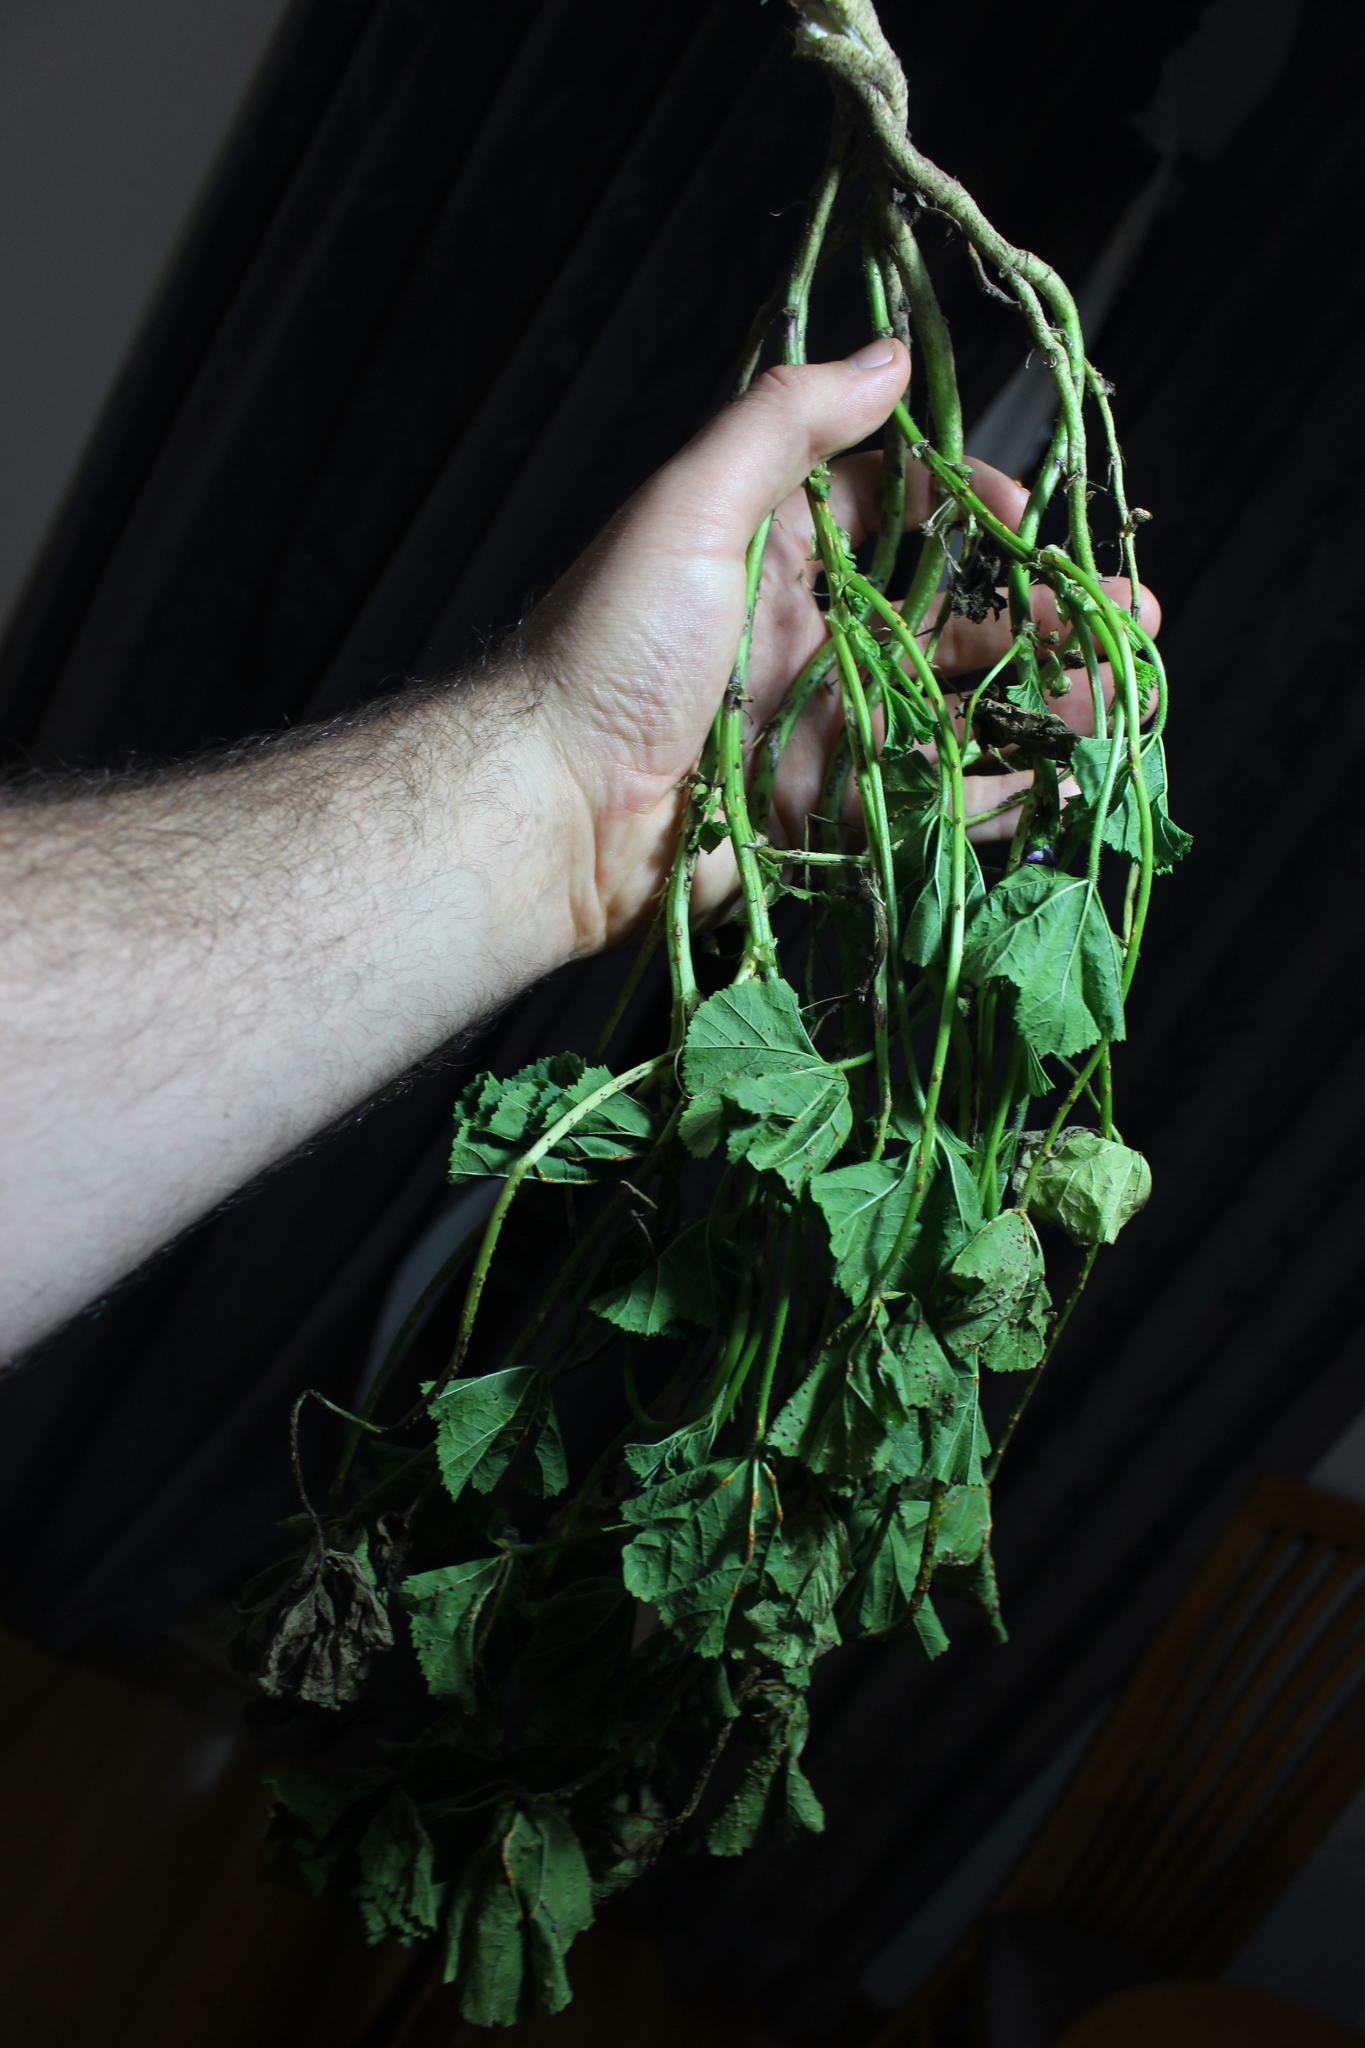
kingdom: Plantae
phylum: Tracheophyta
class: Magnoliopsida
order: Malvales
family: Malvaceae
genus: Malva
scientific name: Malva neglecta
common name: Common mallow
